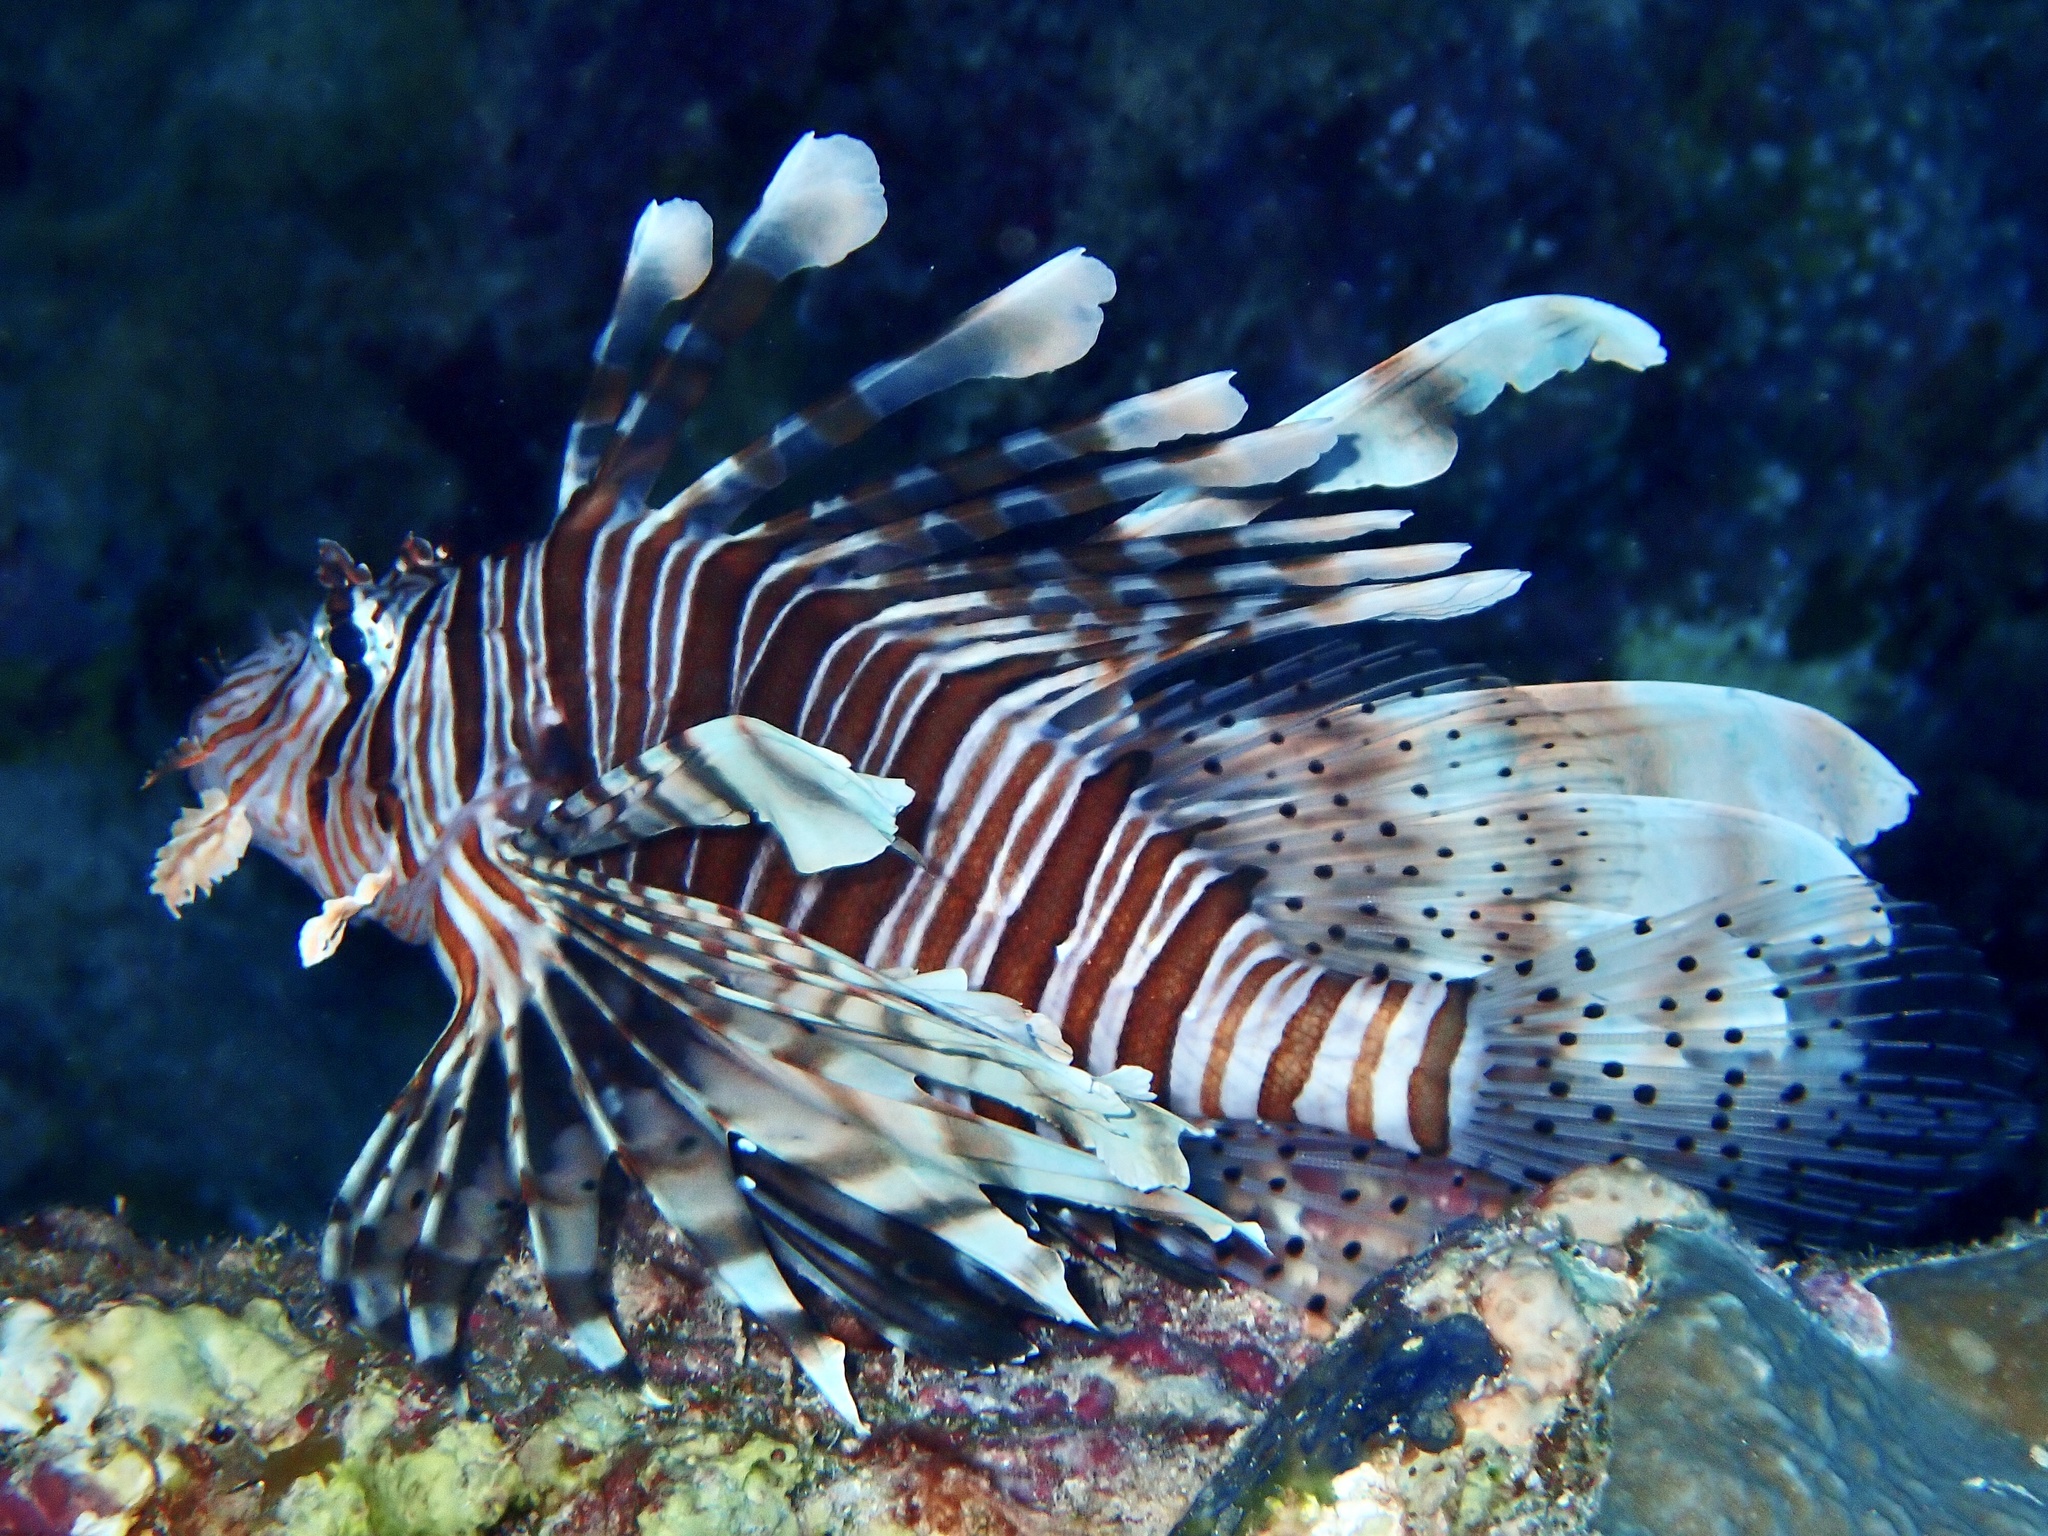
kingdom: Animalia
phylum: Chordata
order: Scorpaeniformes
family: Scorpaenidae
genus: Pterois
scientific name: Pterois miles
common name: Devil firefish
